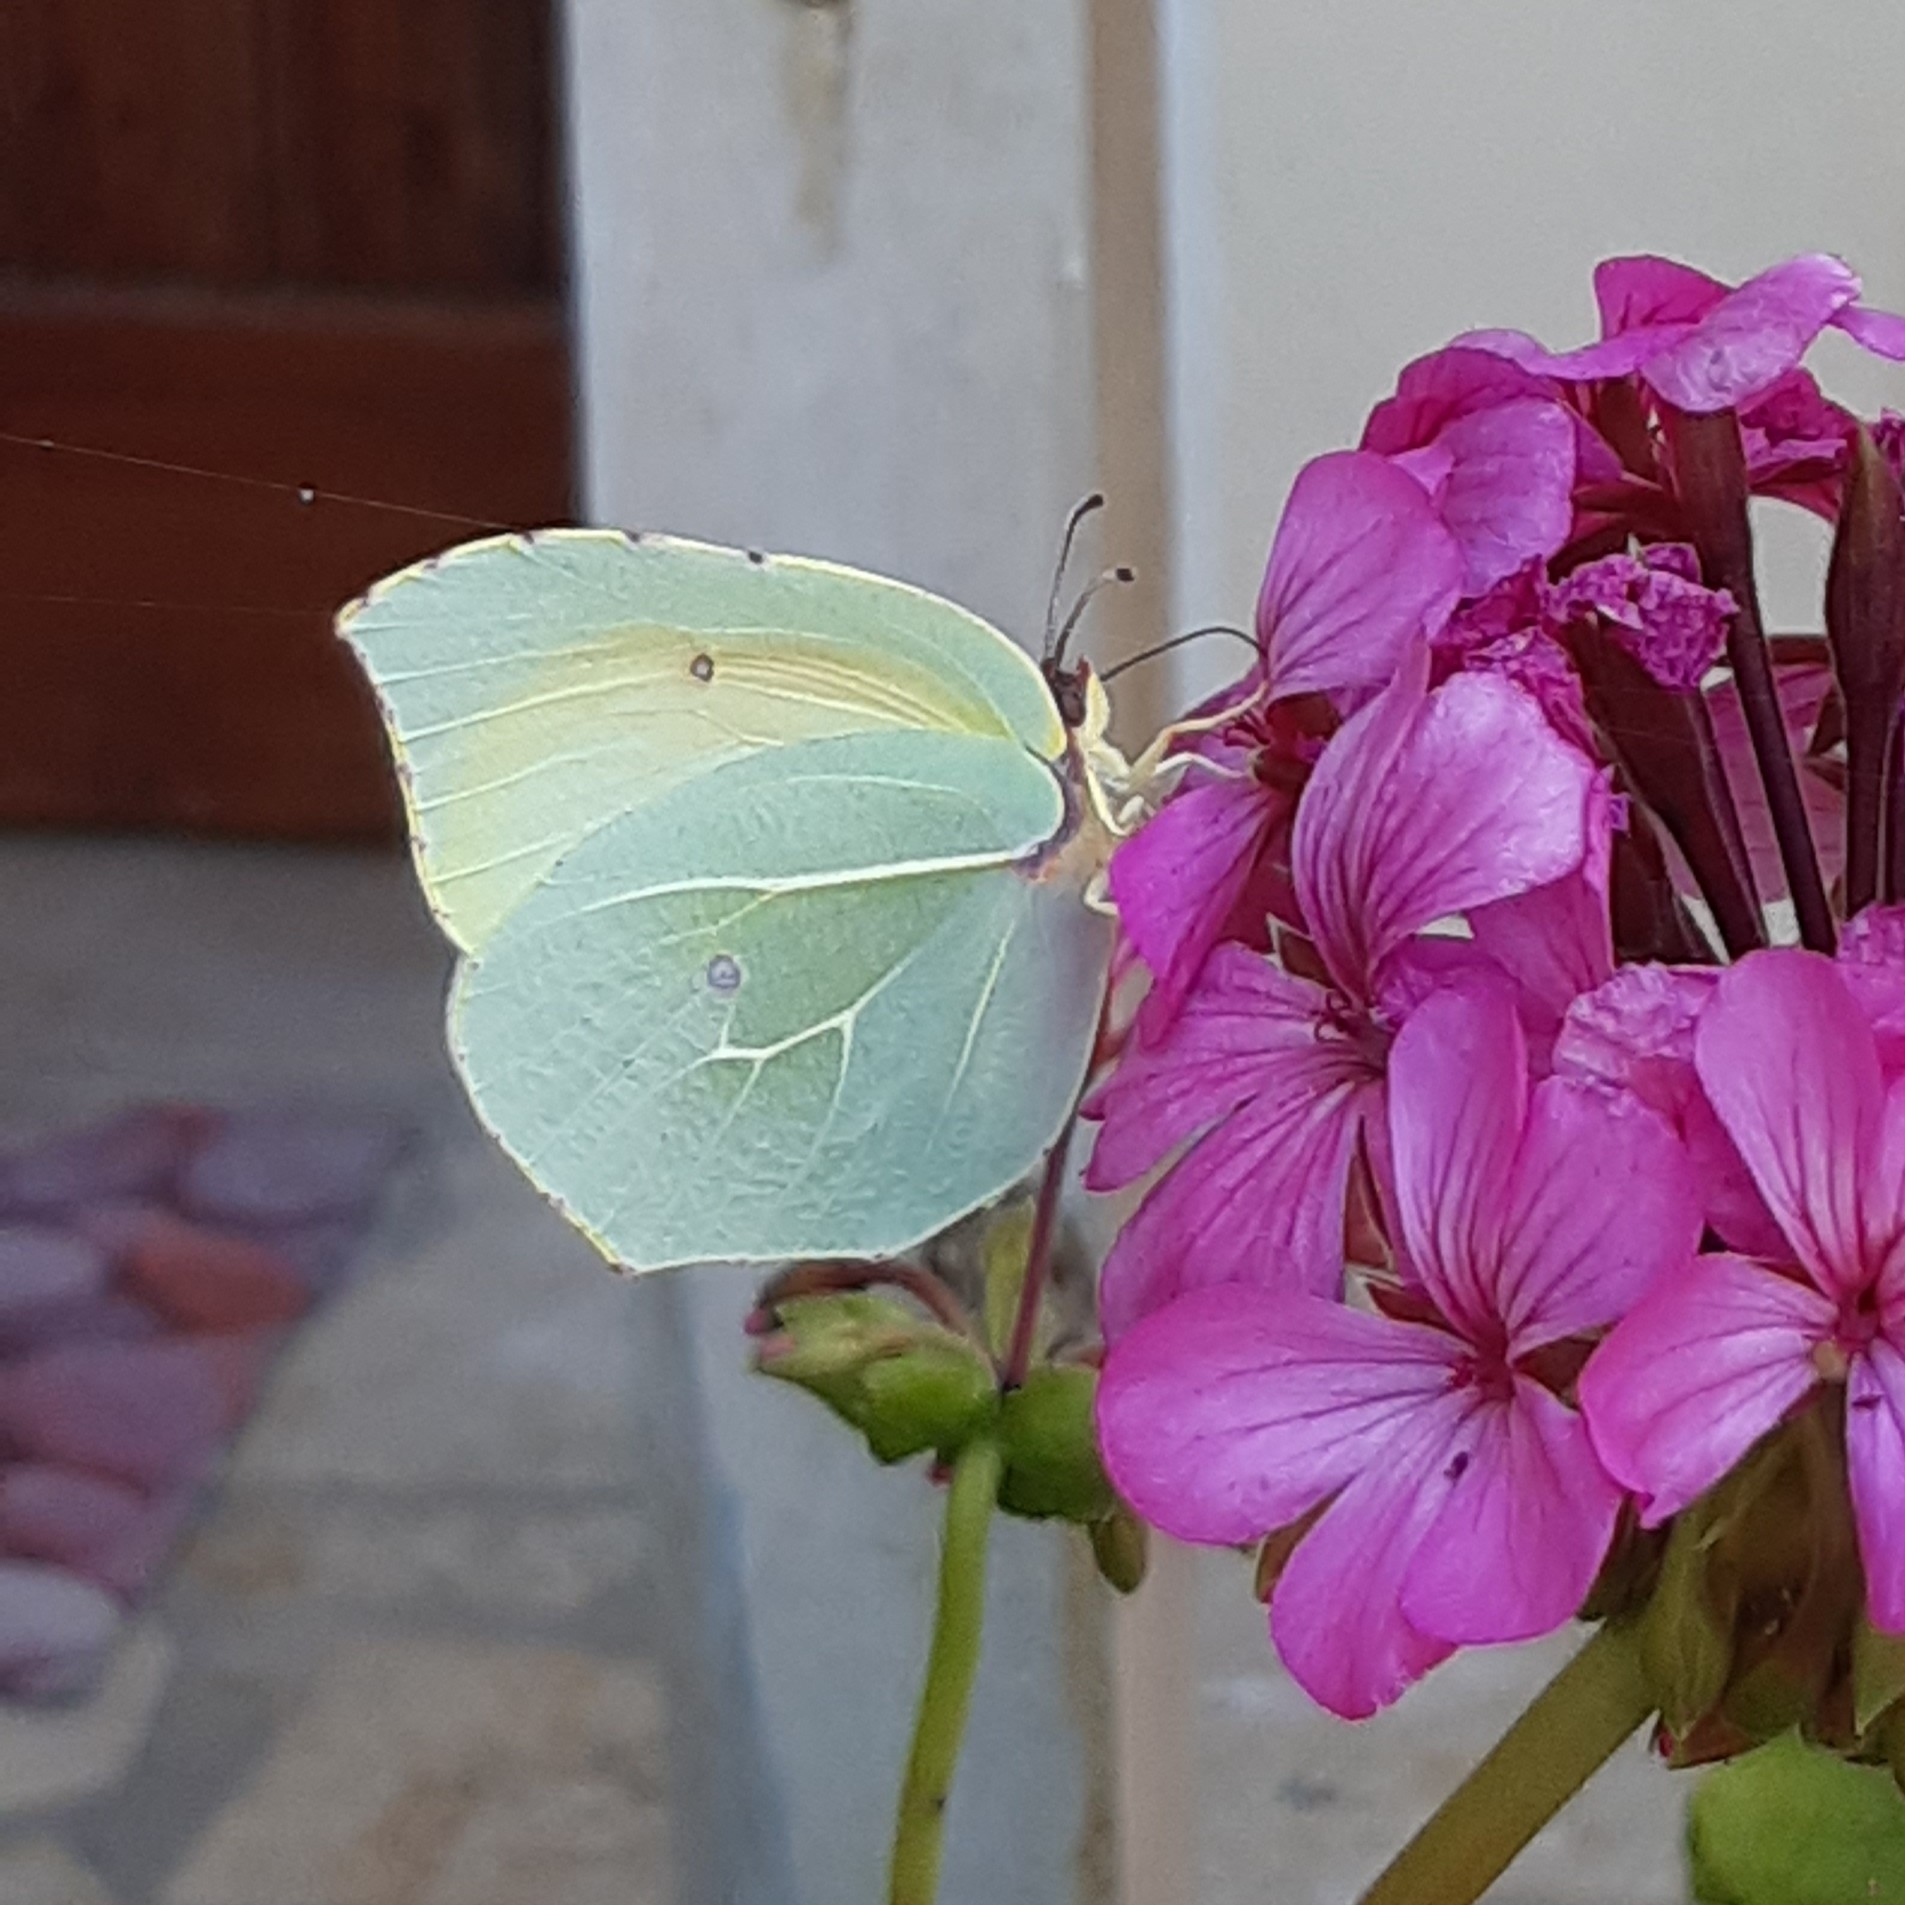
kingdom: Animalia
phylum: Arthropoda
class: Insecta
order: Lepidoptera
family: Pieridae
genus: Gonepteryx
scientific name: Gonepteryx cleopatra
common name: Cleopatra
